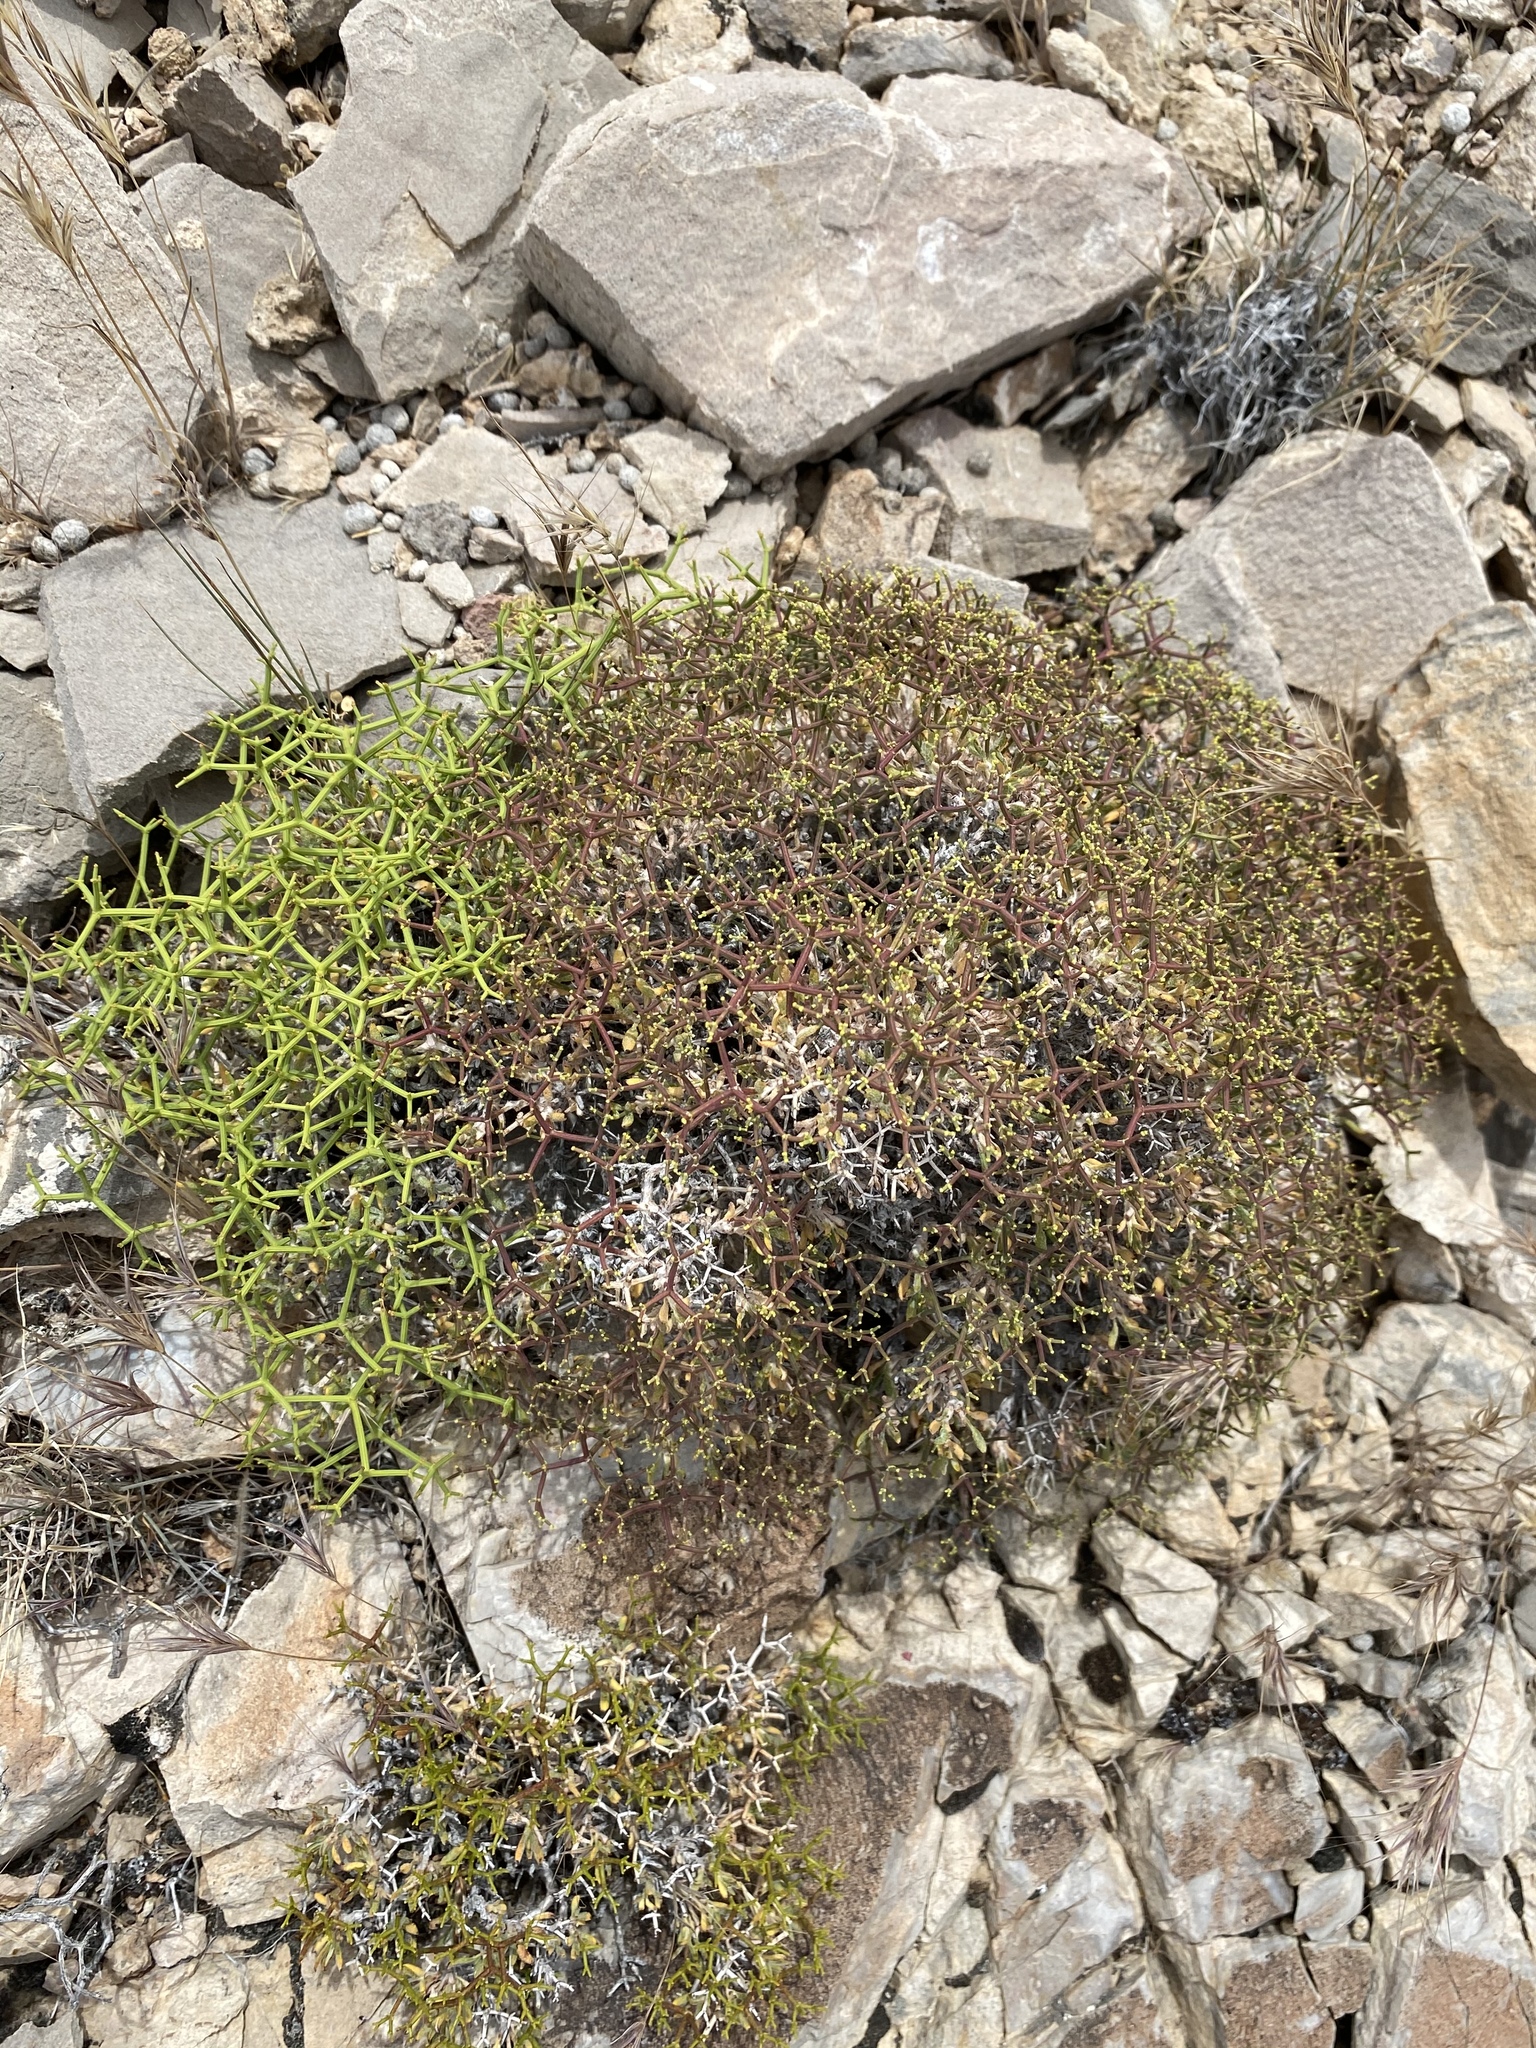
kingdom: Plantae
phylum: Tracheophyta
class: Magnoliopsida
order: Caryophyllales
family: Polygonaceae
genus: Eriogonum
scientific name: Eriogonum heermannii
